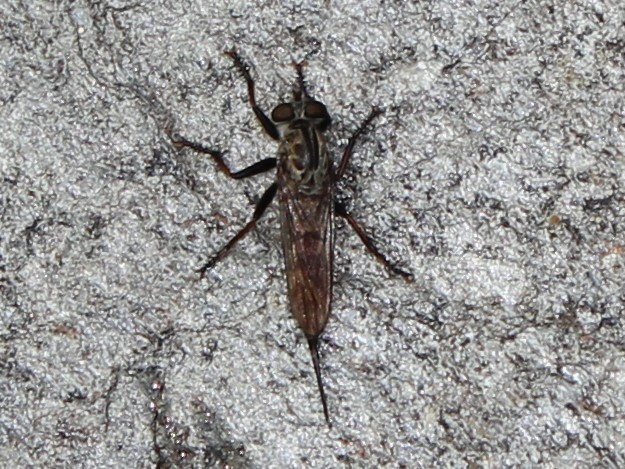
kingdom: Animalia
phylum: Arthropoda
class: Insecta
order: Diptera
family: Asilidae
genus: Efferia
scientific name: Efferia aestuans
